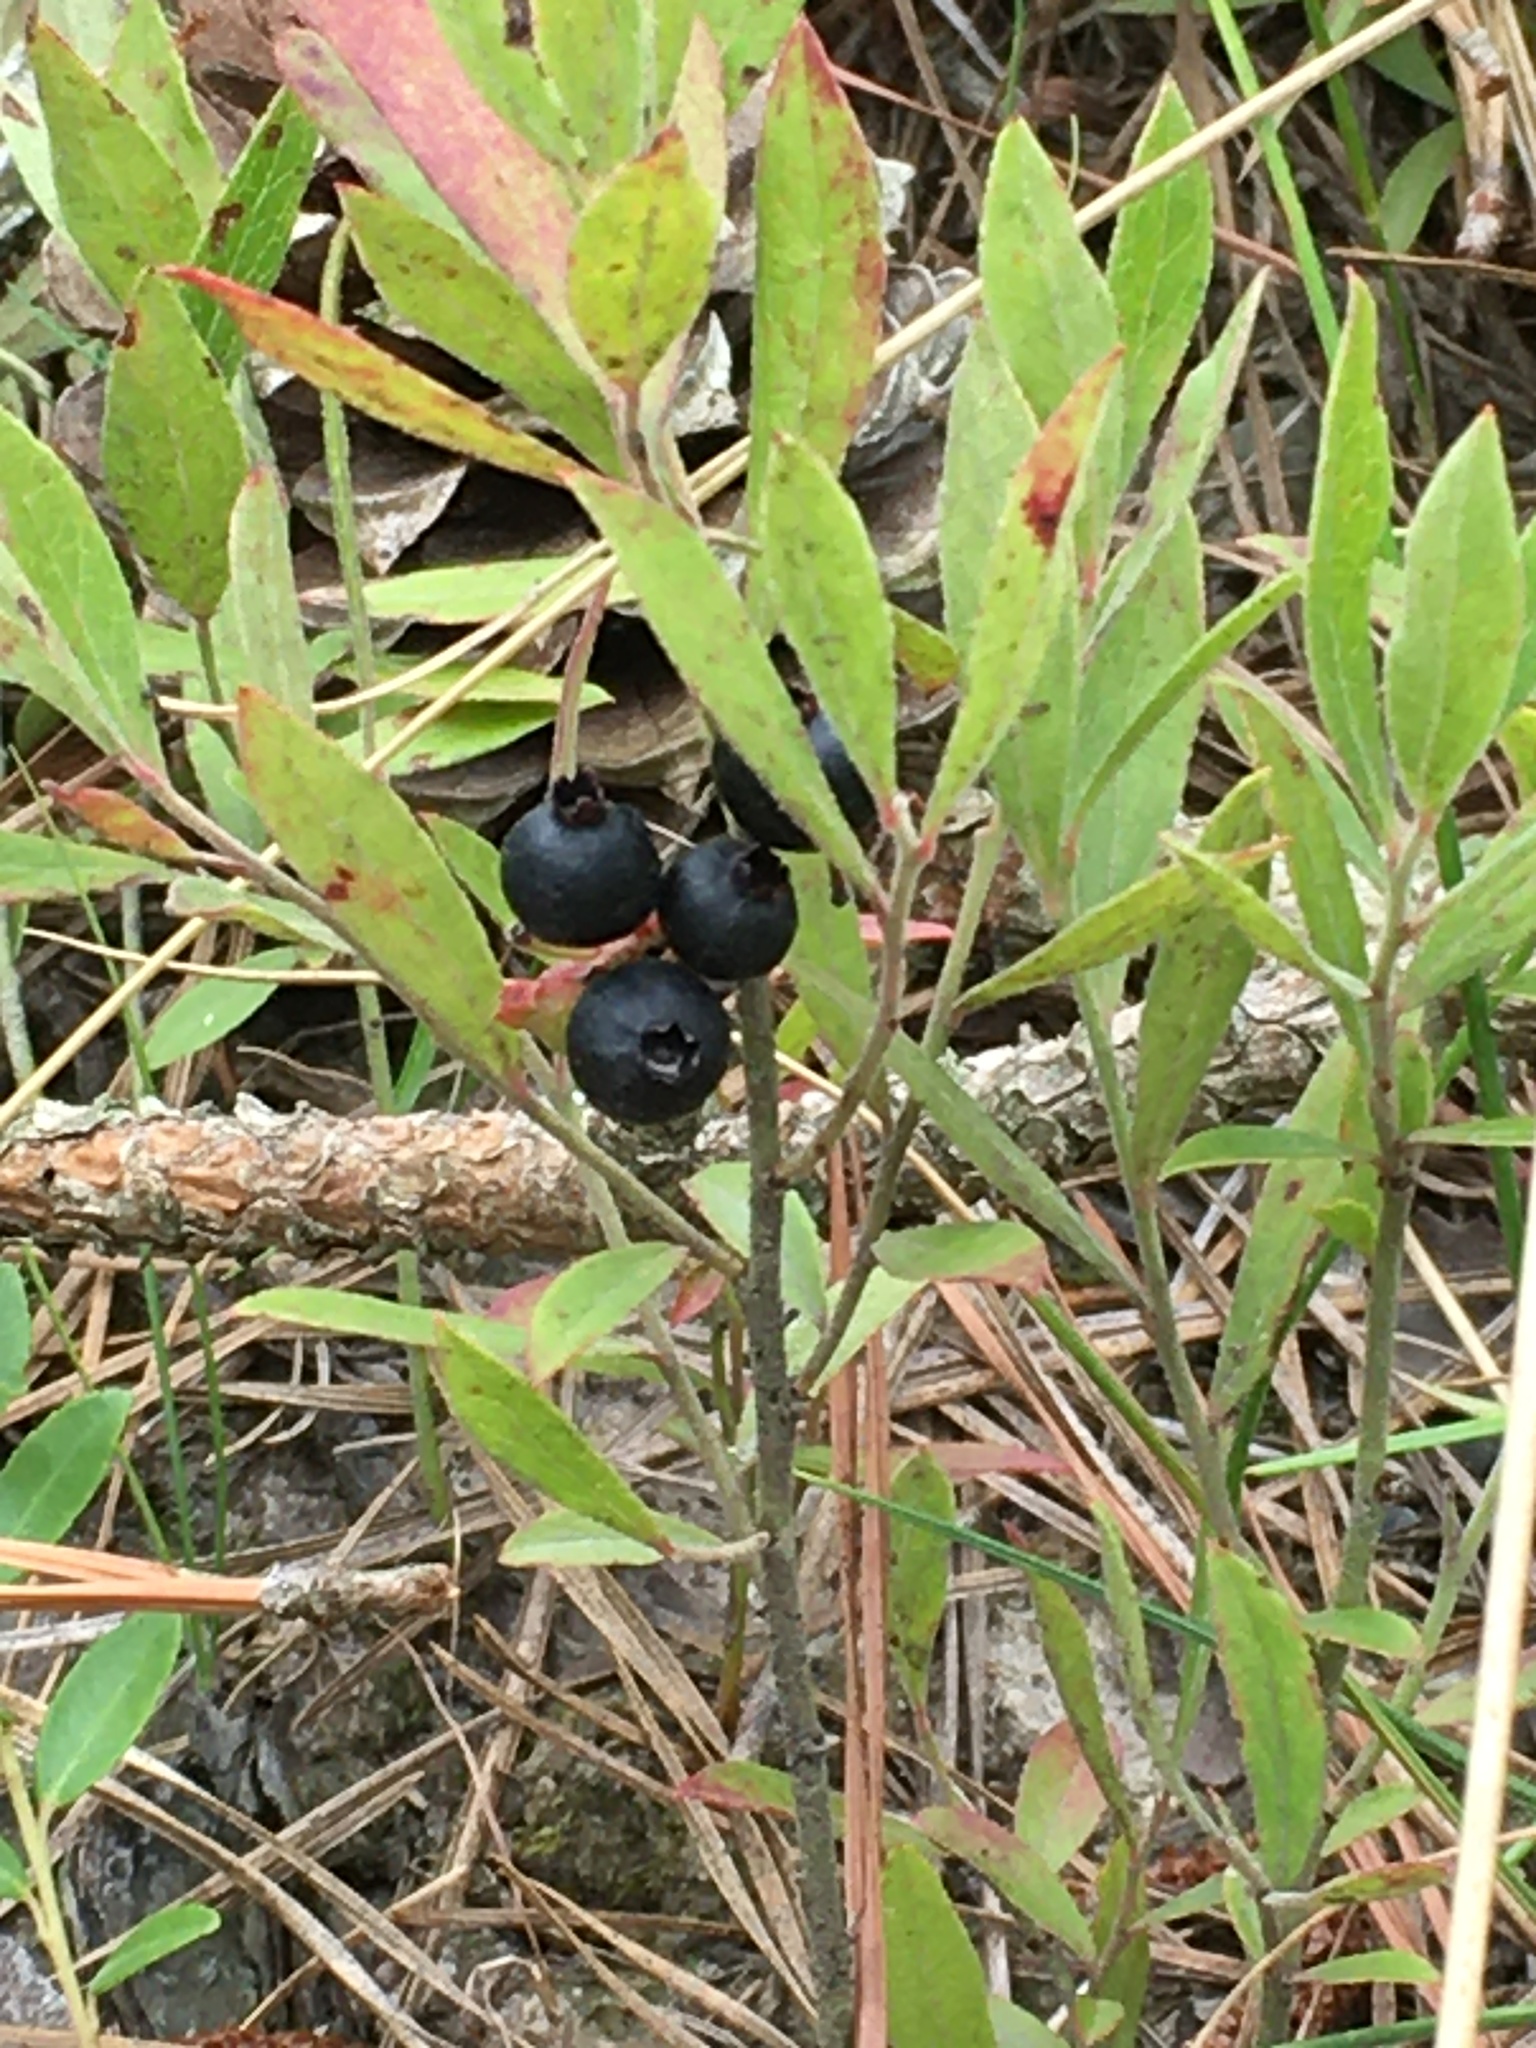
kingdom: Plantae
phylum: Tracheophyta
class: Magnoliopsida
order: Ericales
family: Ericaceae
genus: Vaccinium
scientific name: Vaccinium tenellum
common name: Southern blueberry
